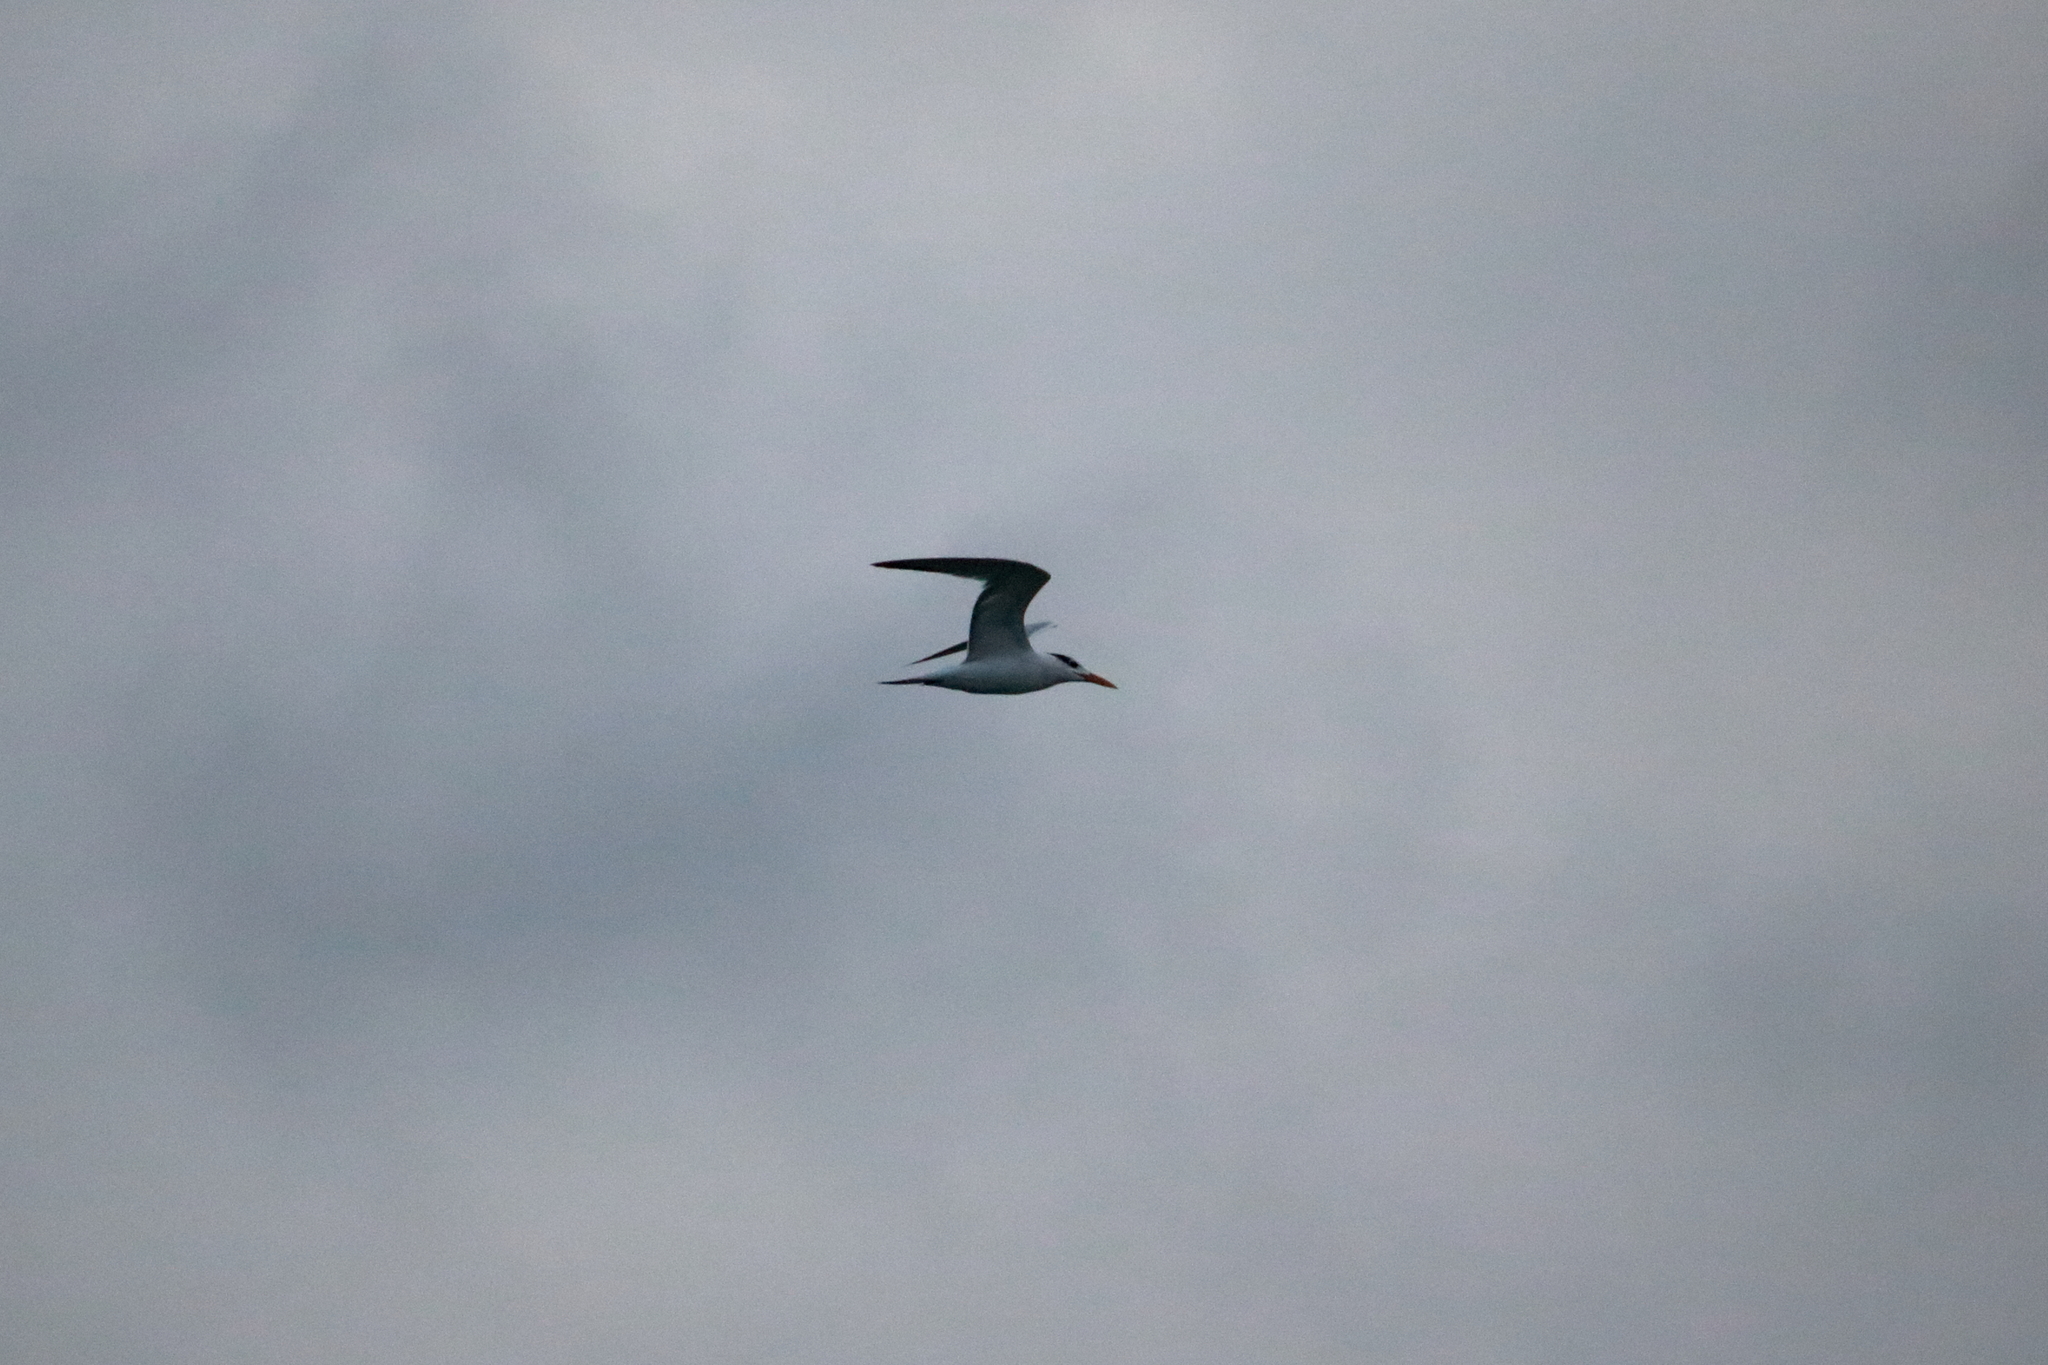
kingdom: Animalia
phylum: Chordata
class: Aves
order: Charadriiformes
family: Laridae
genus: Thalasseus
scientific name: Thalasseus maximus
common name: Royal tern
